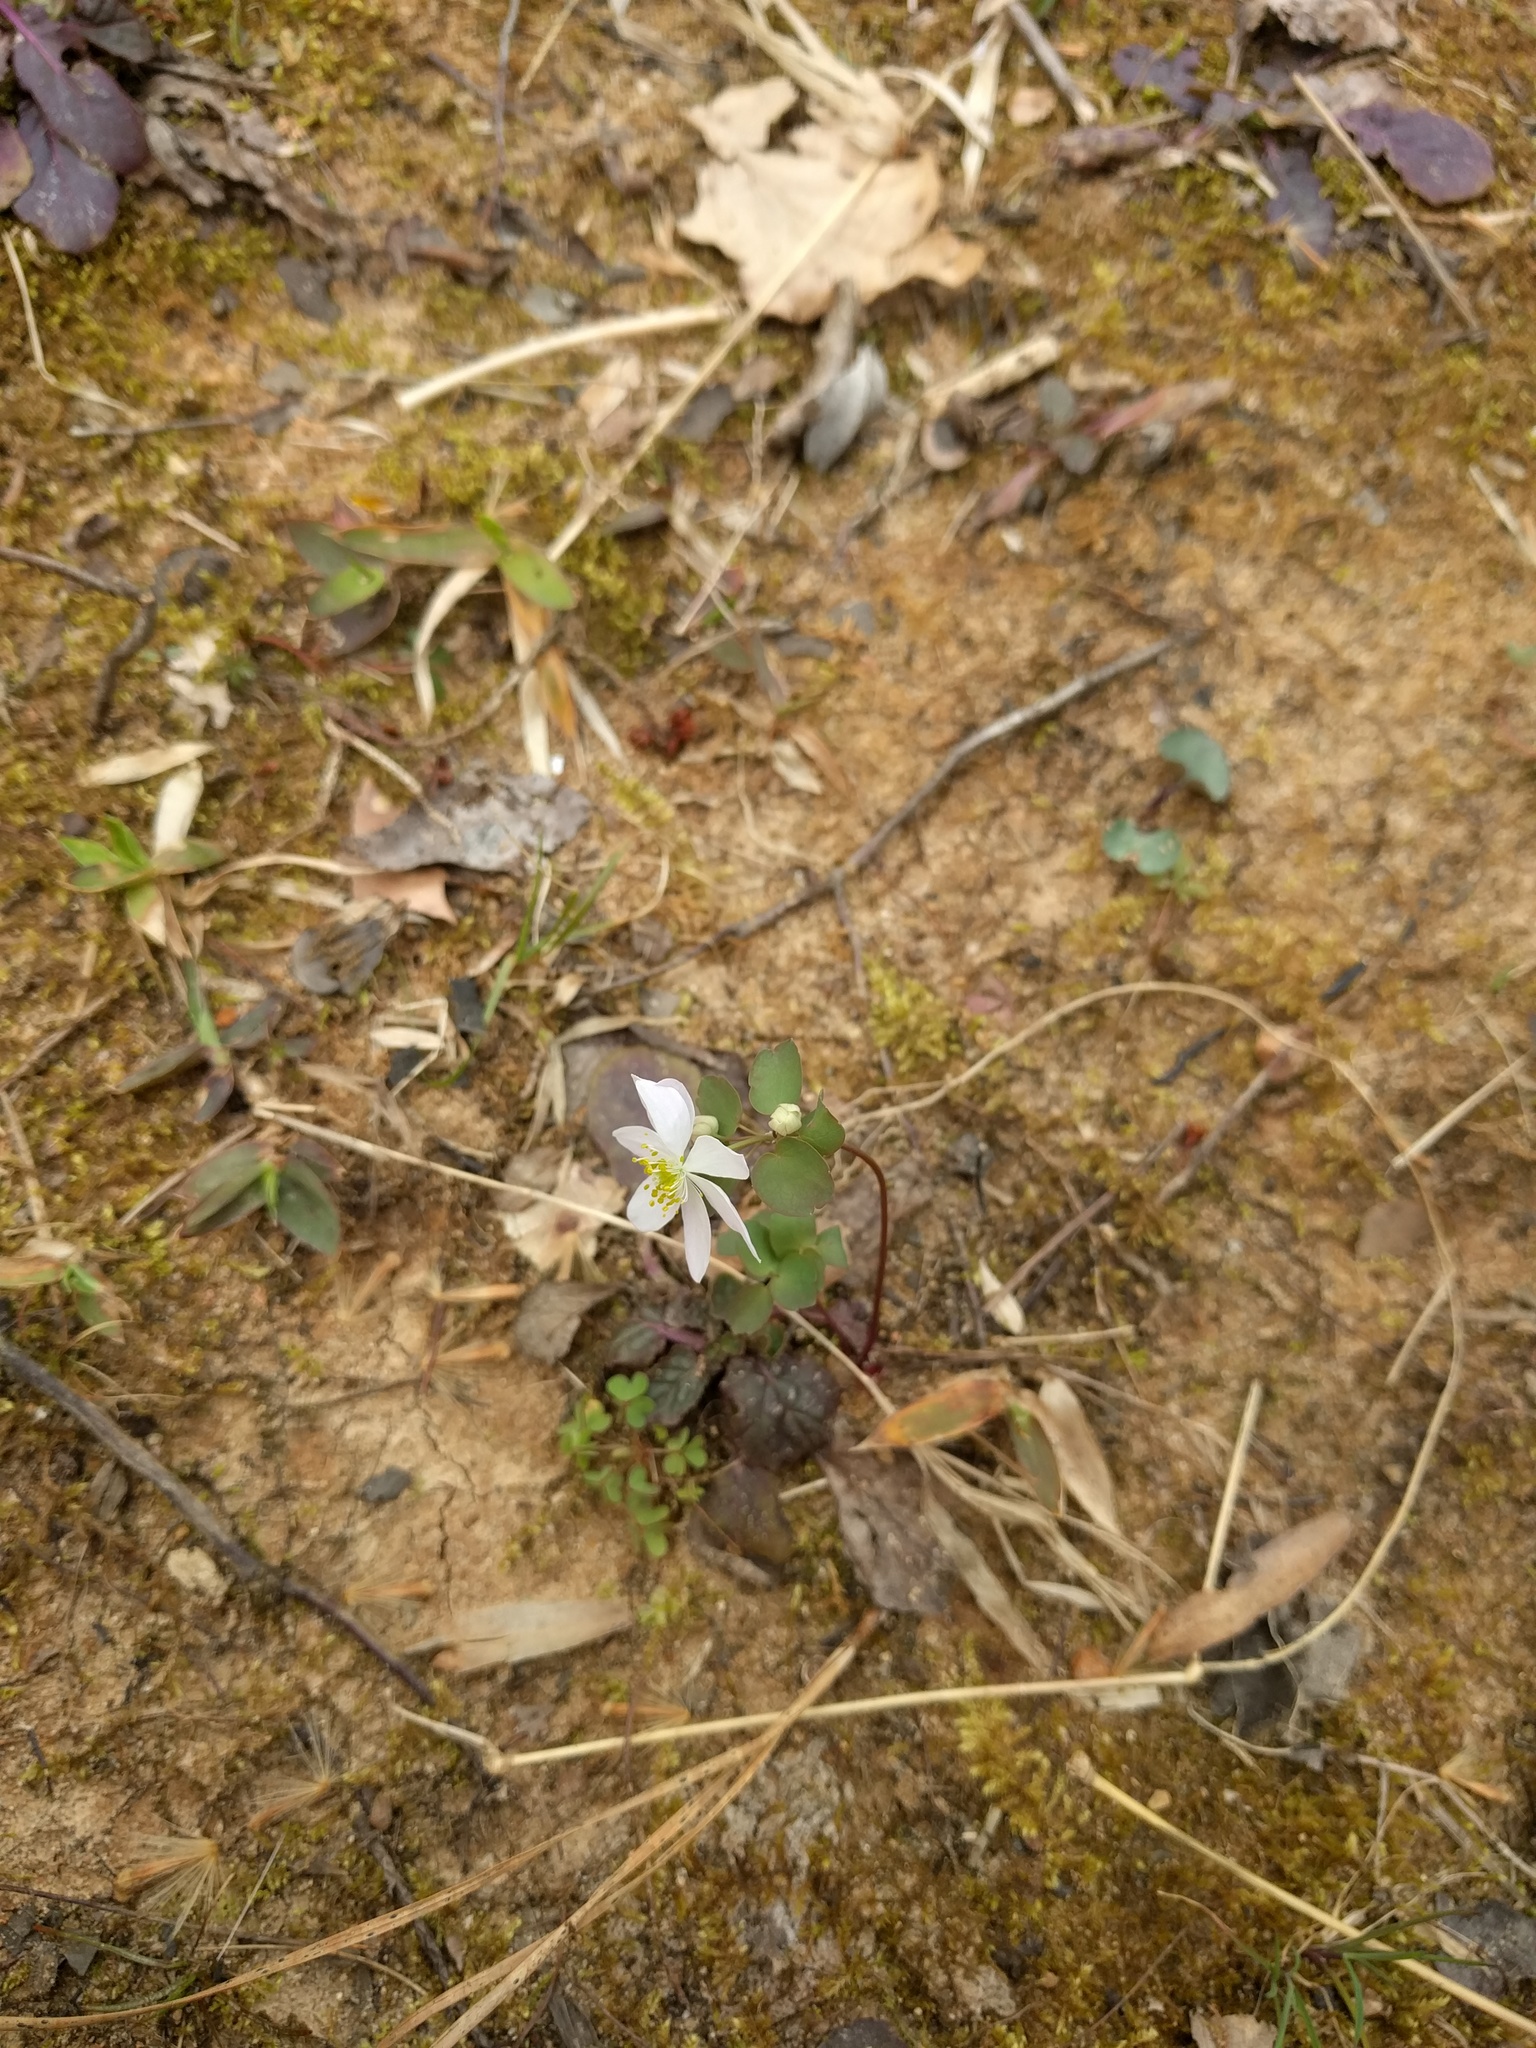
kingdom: Plantae
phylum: Tracheophyta
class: Magnoliopsida
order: Ranunculales
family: Ranunculaceae
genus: Thalictrum
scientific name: Thalictrum thalictroides
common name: Rue-anemone
